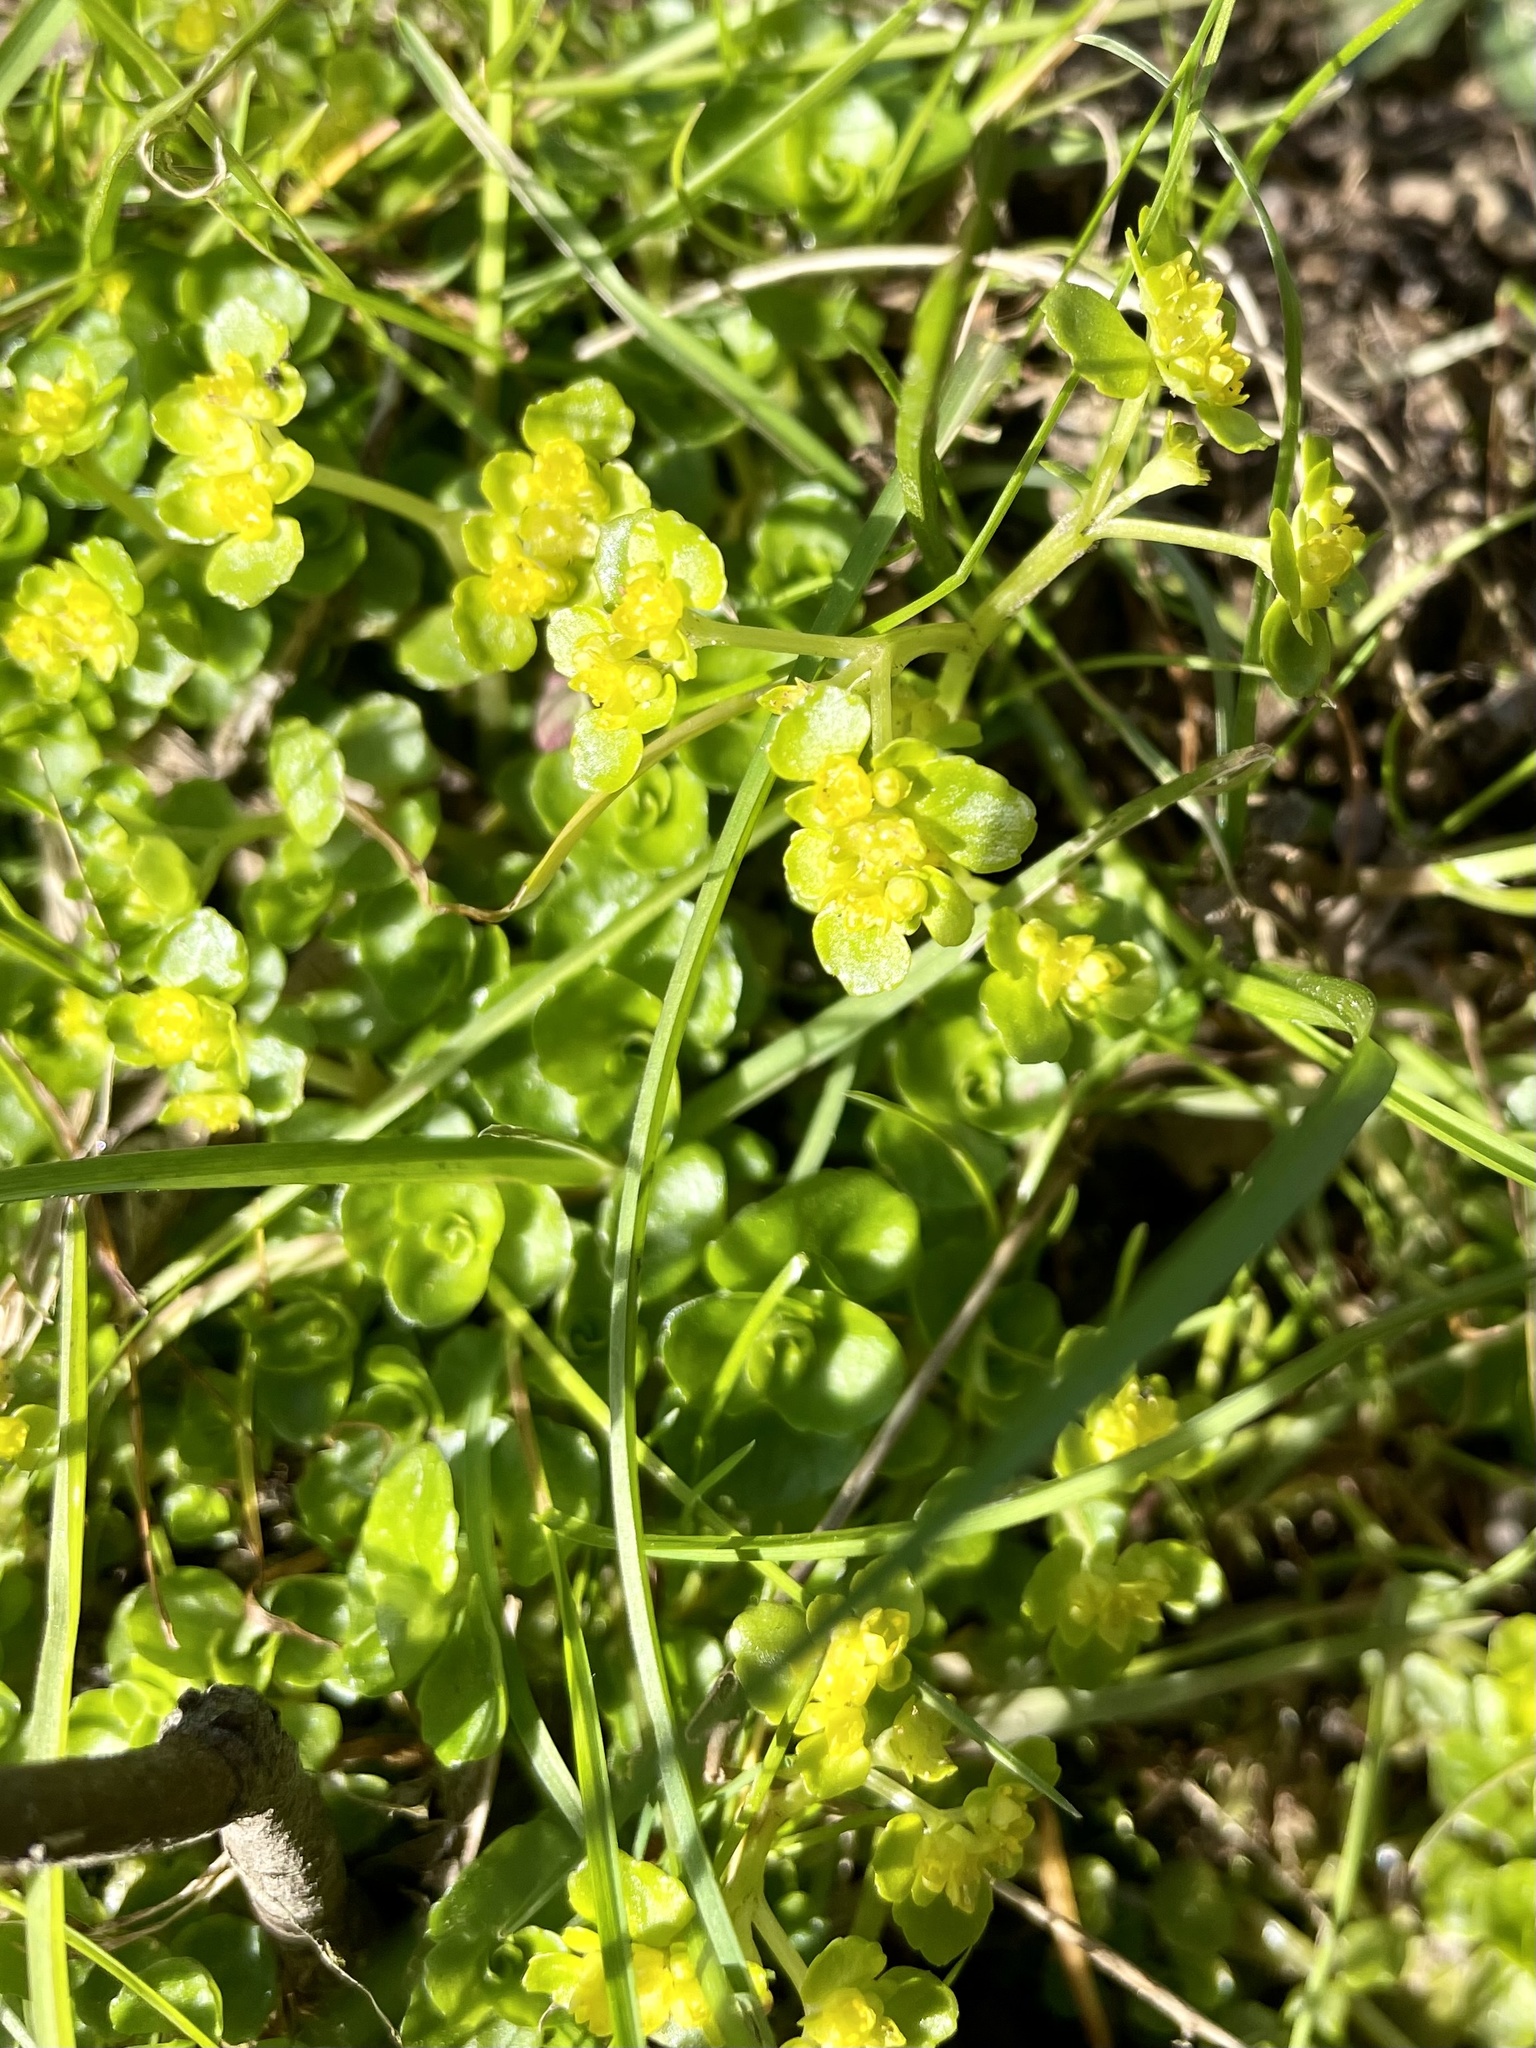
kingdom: Plantae
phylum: Tracheophyta
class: Magnoliopsida
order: Saxifragales
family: Saxifragaceae
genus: Chrysosplenium
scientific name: Chrysosplenium oppositifolium
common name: Opposite-leaved golden-saxifrage
